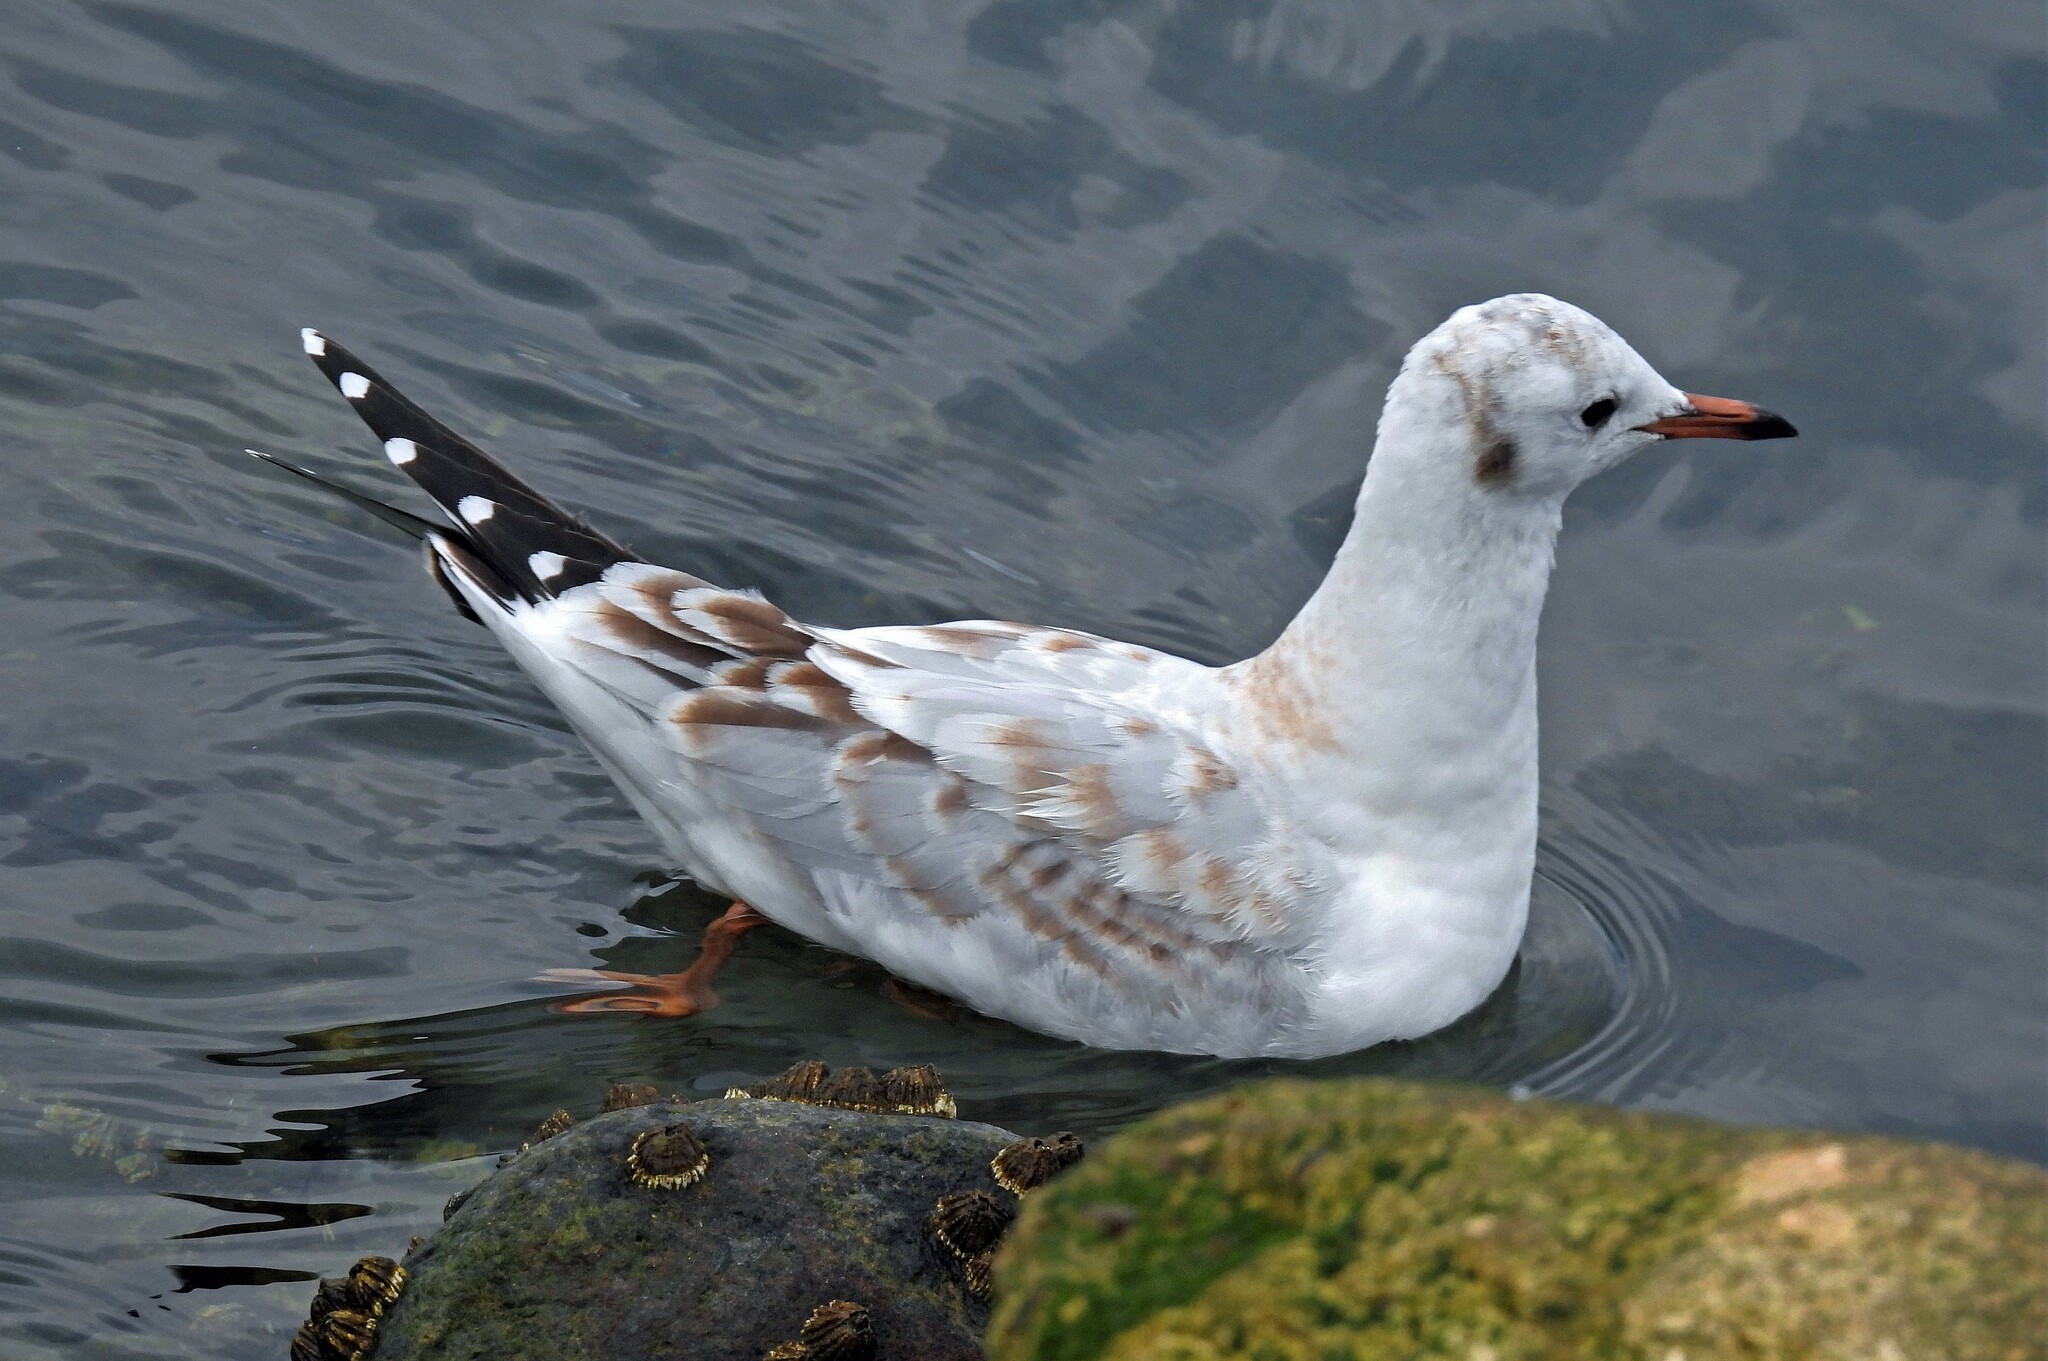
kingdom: Animalia
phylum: Chordata
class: Aves
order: Charadriiformes
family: Laridae
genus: Chroicocephalus
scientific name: Chroicocephalus maculipennis
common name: Brown-hooded gull
